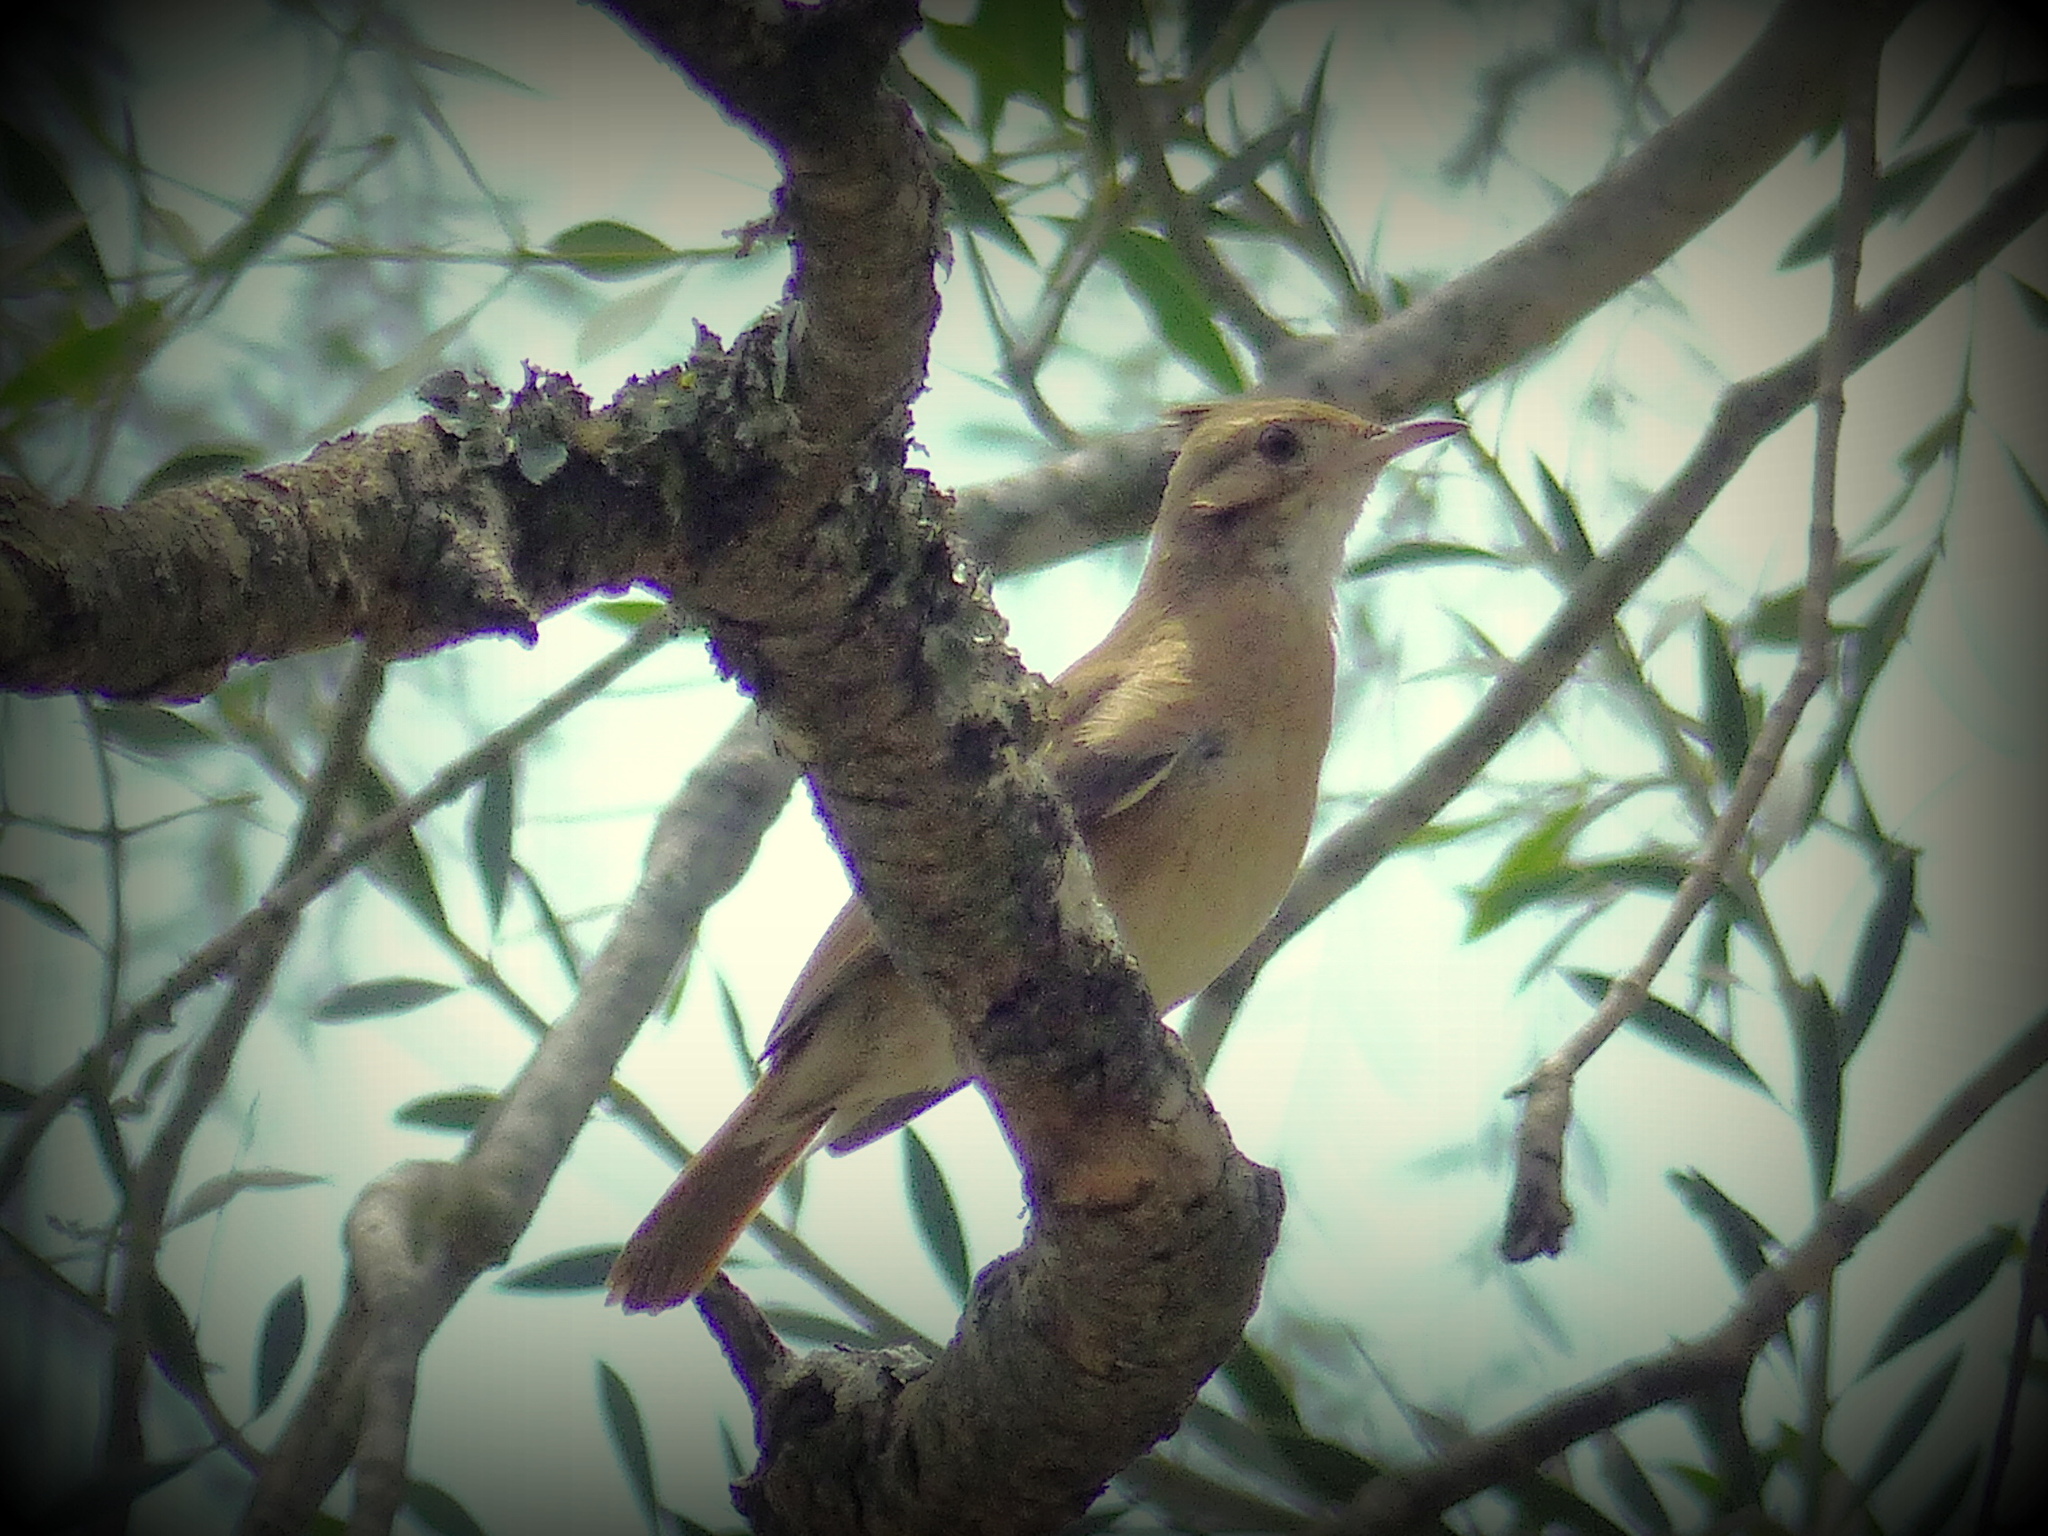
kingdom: Animalia
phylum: Chordata
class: Aves
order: Passeriformes
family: Furnariidae
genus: Furnarius
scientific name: Furnarius cristatus
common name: Crested hornero
